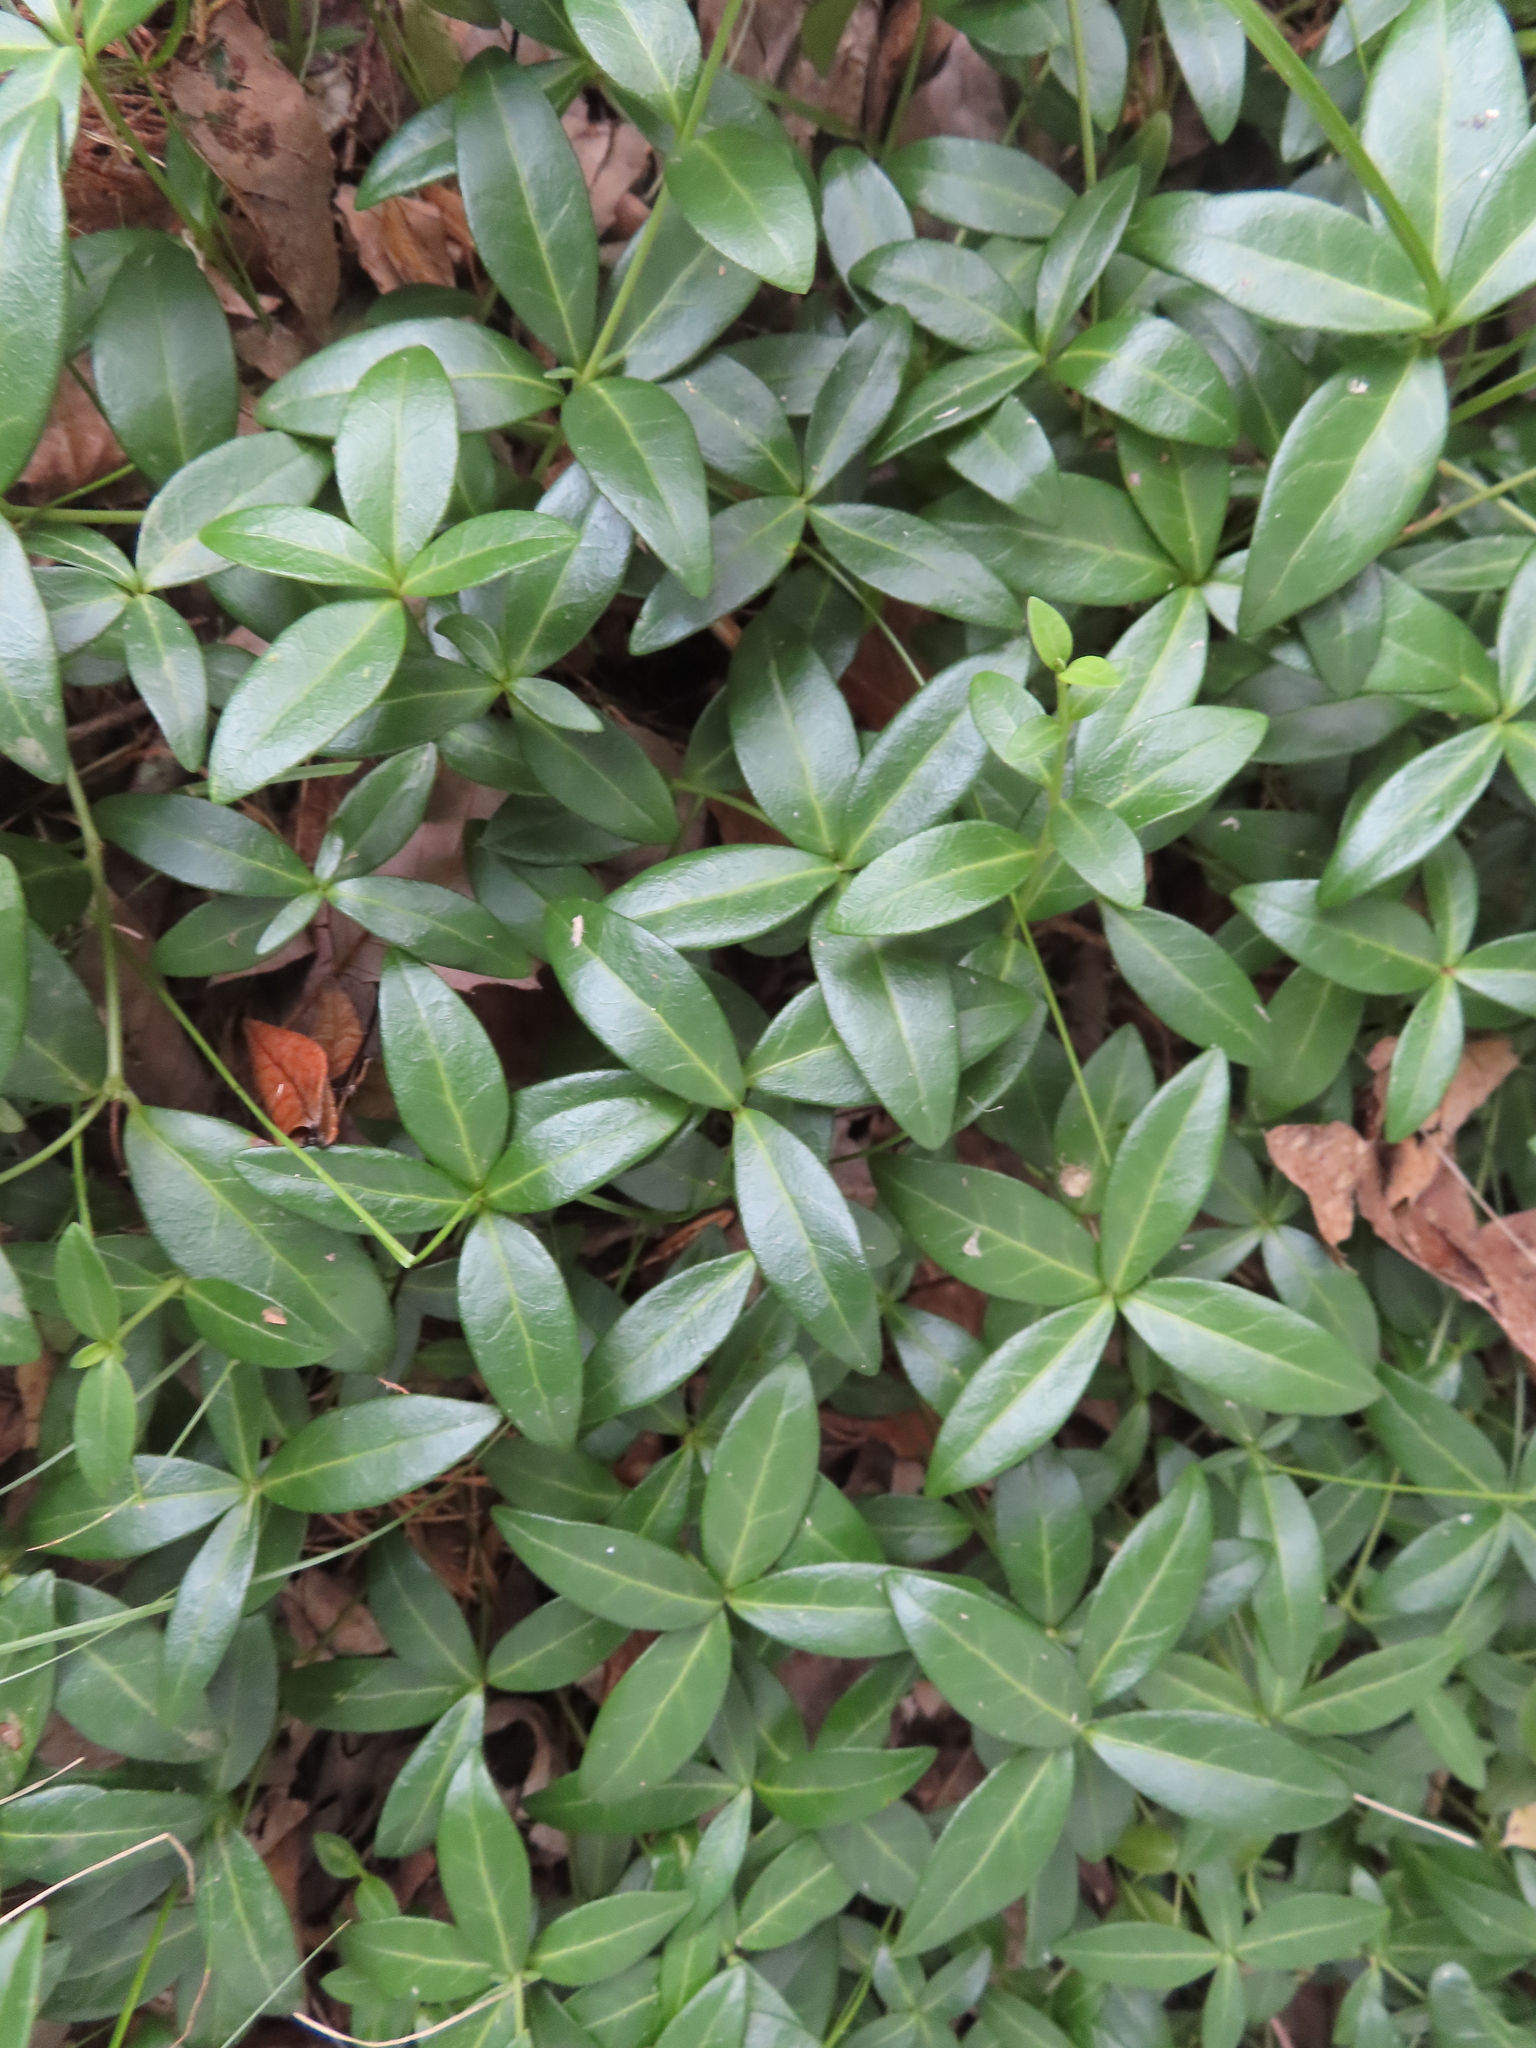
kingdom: Plantae
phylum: Tracheophyta
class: Magnoliopsida
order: Gentianales
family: Apocynaceae
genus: Vinca
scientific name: Vinca minor
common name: Lesser periwinkle
